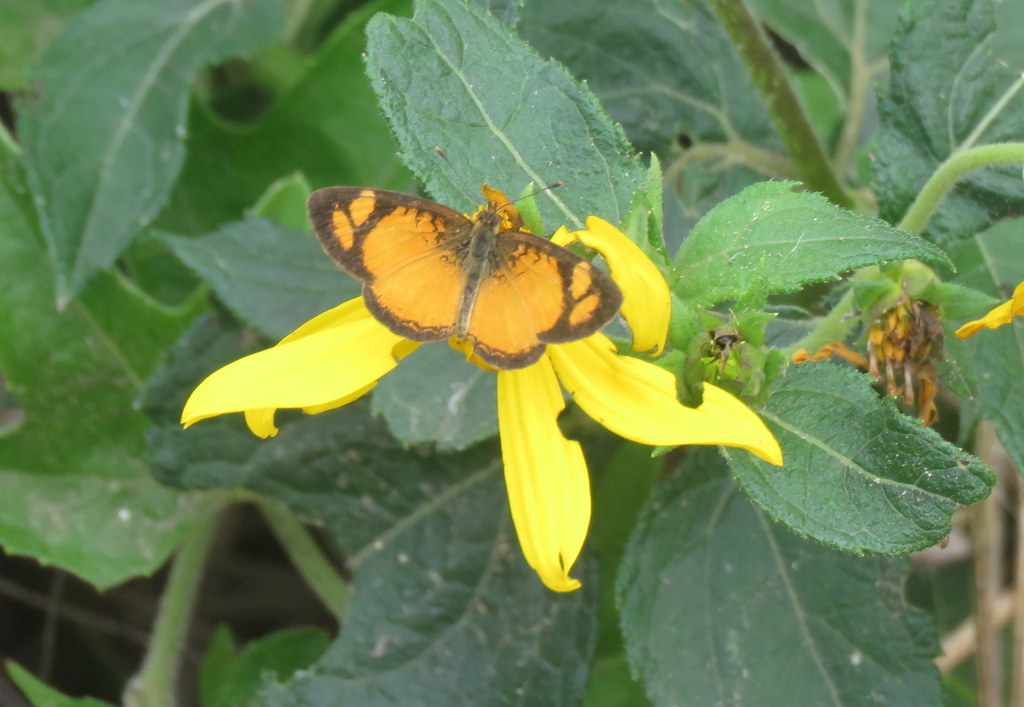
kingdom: Animalia
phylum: Arthropoda
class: Insecta
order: Lepidoptera
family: Nymphalidae
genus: Tegosa
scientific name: Tegosa claudina
